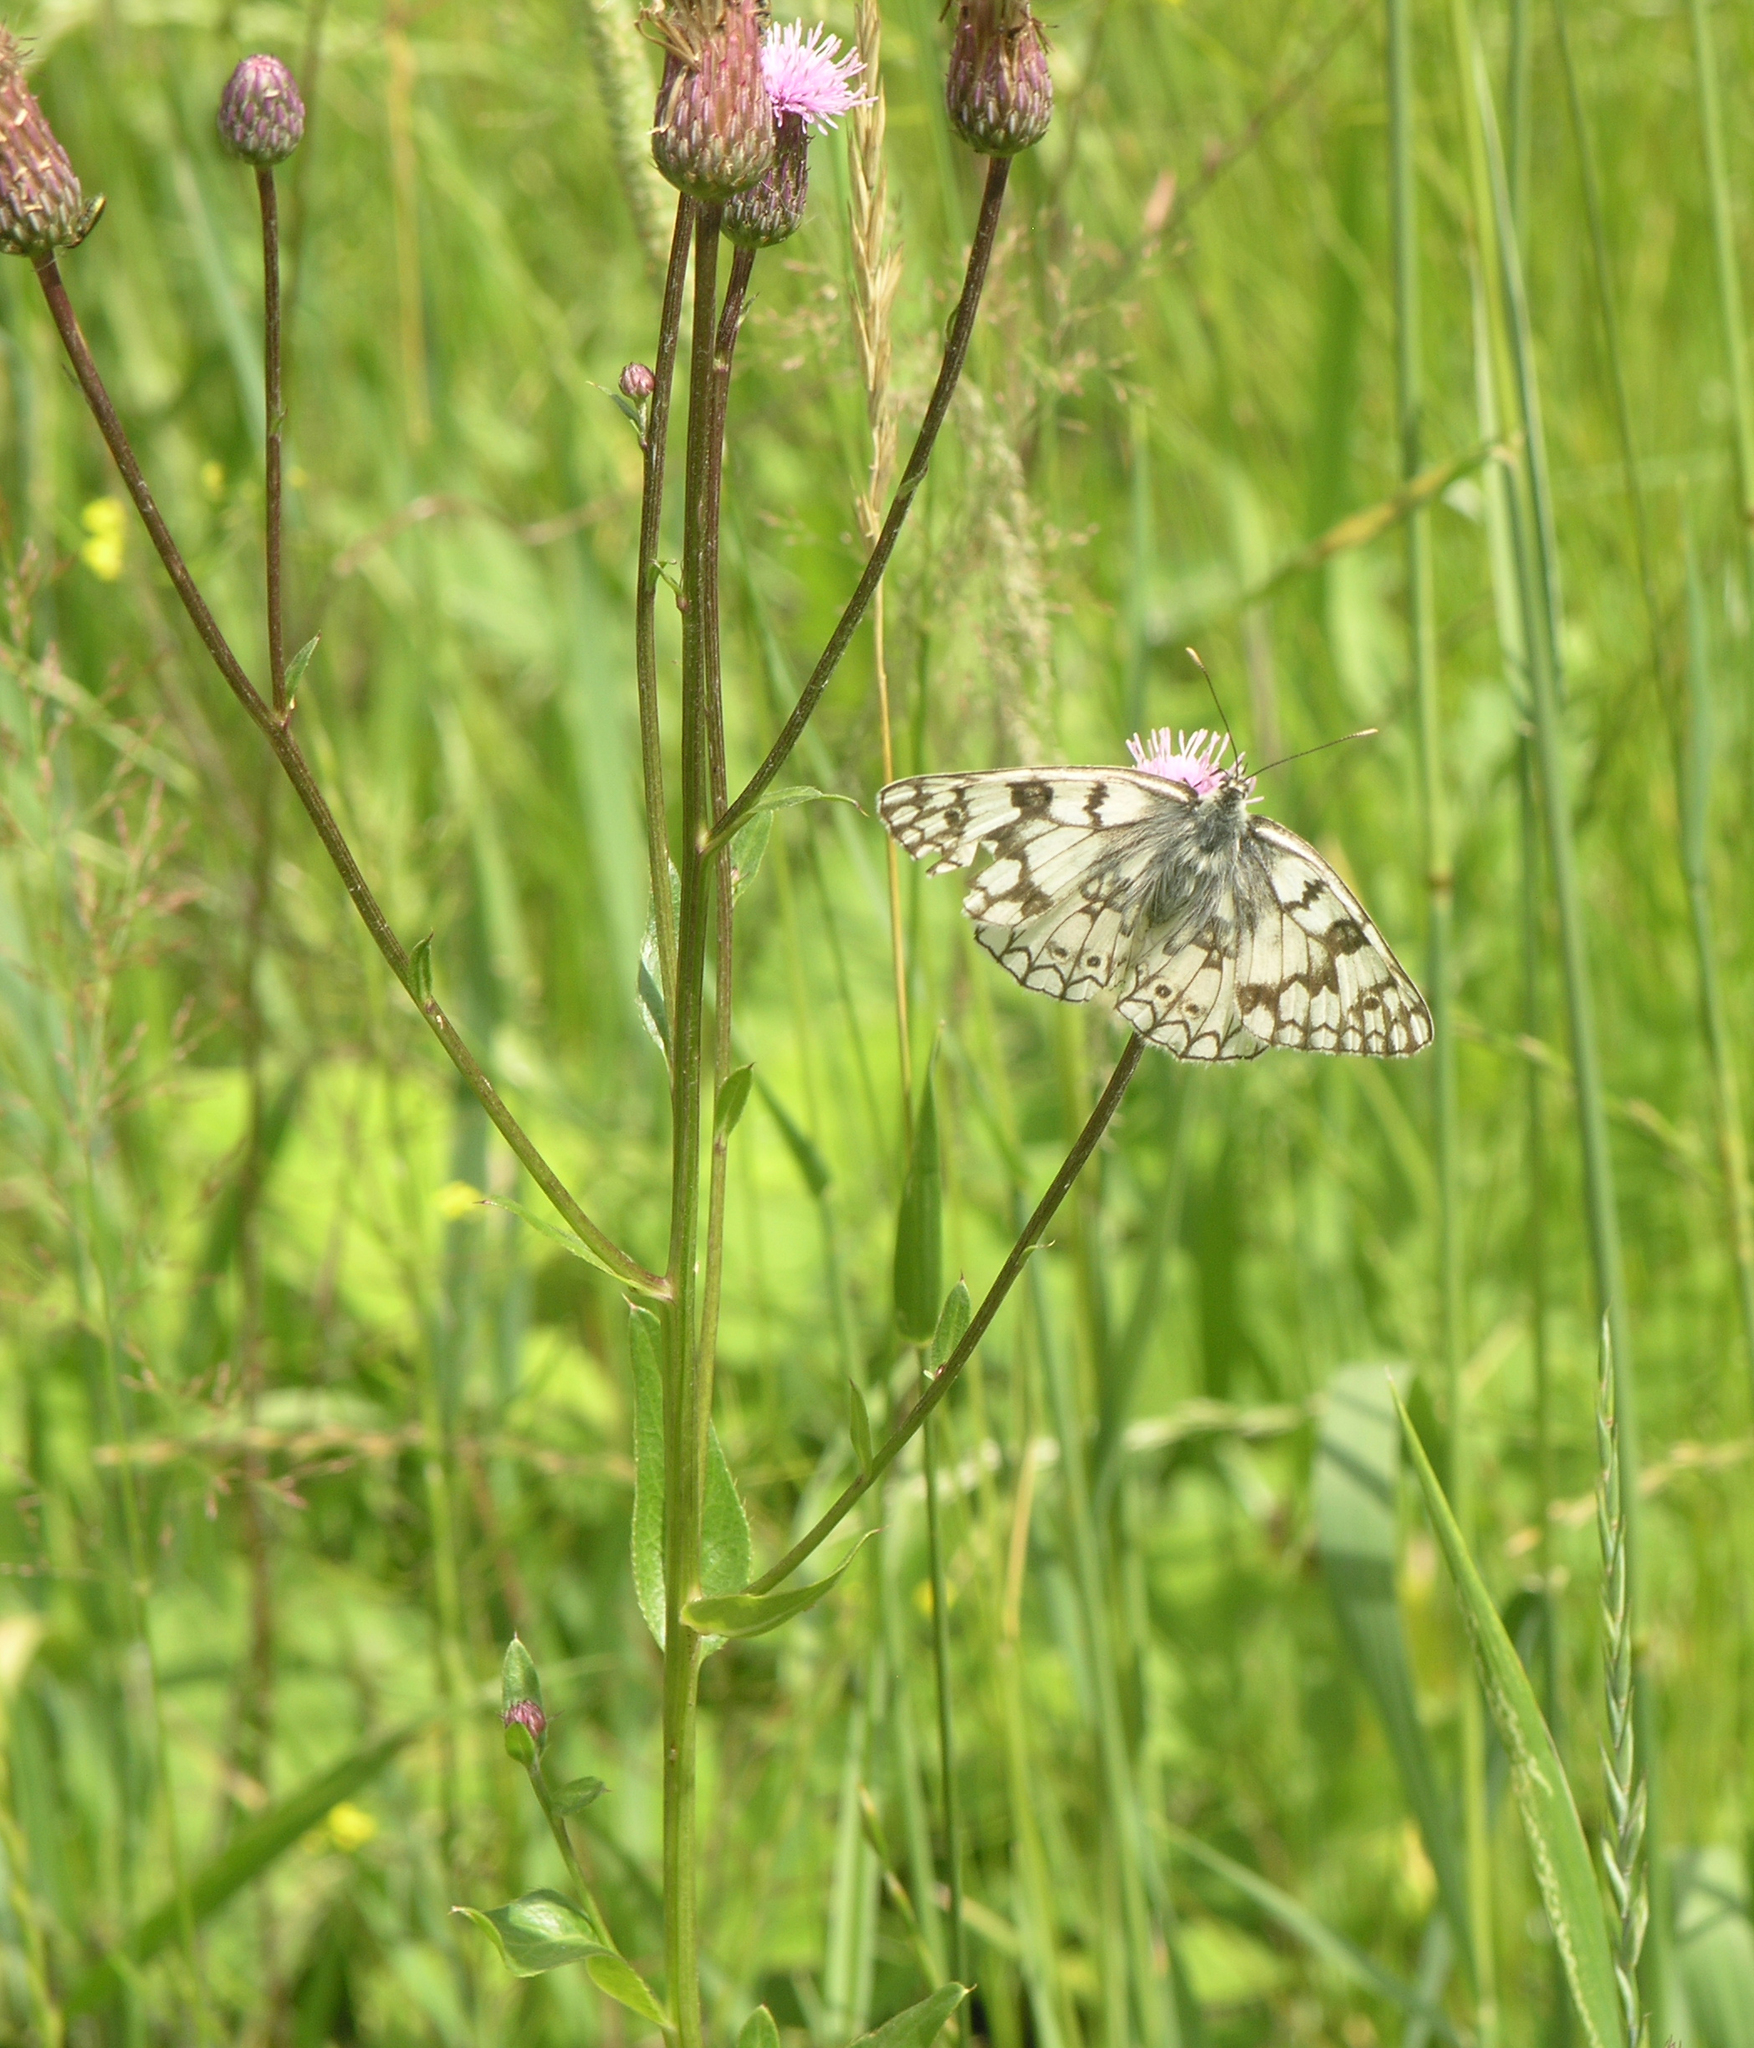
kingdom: Animalia
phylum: Arthropoda
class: Insecta
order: Lepidoptera
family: Nymphalidae
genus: Melanargia
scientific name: Melanargia japygia
